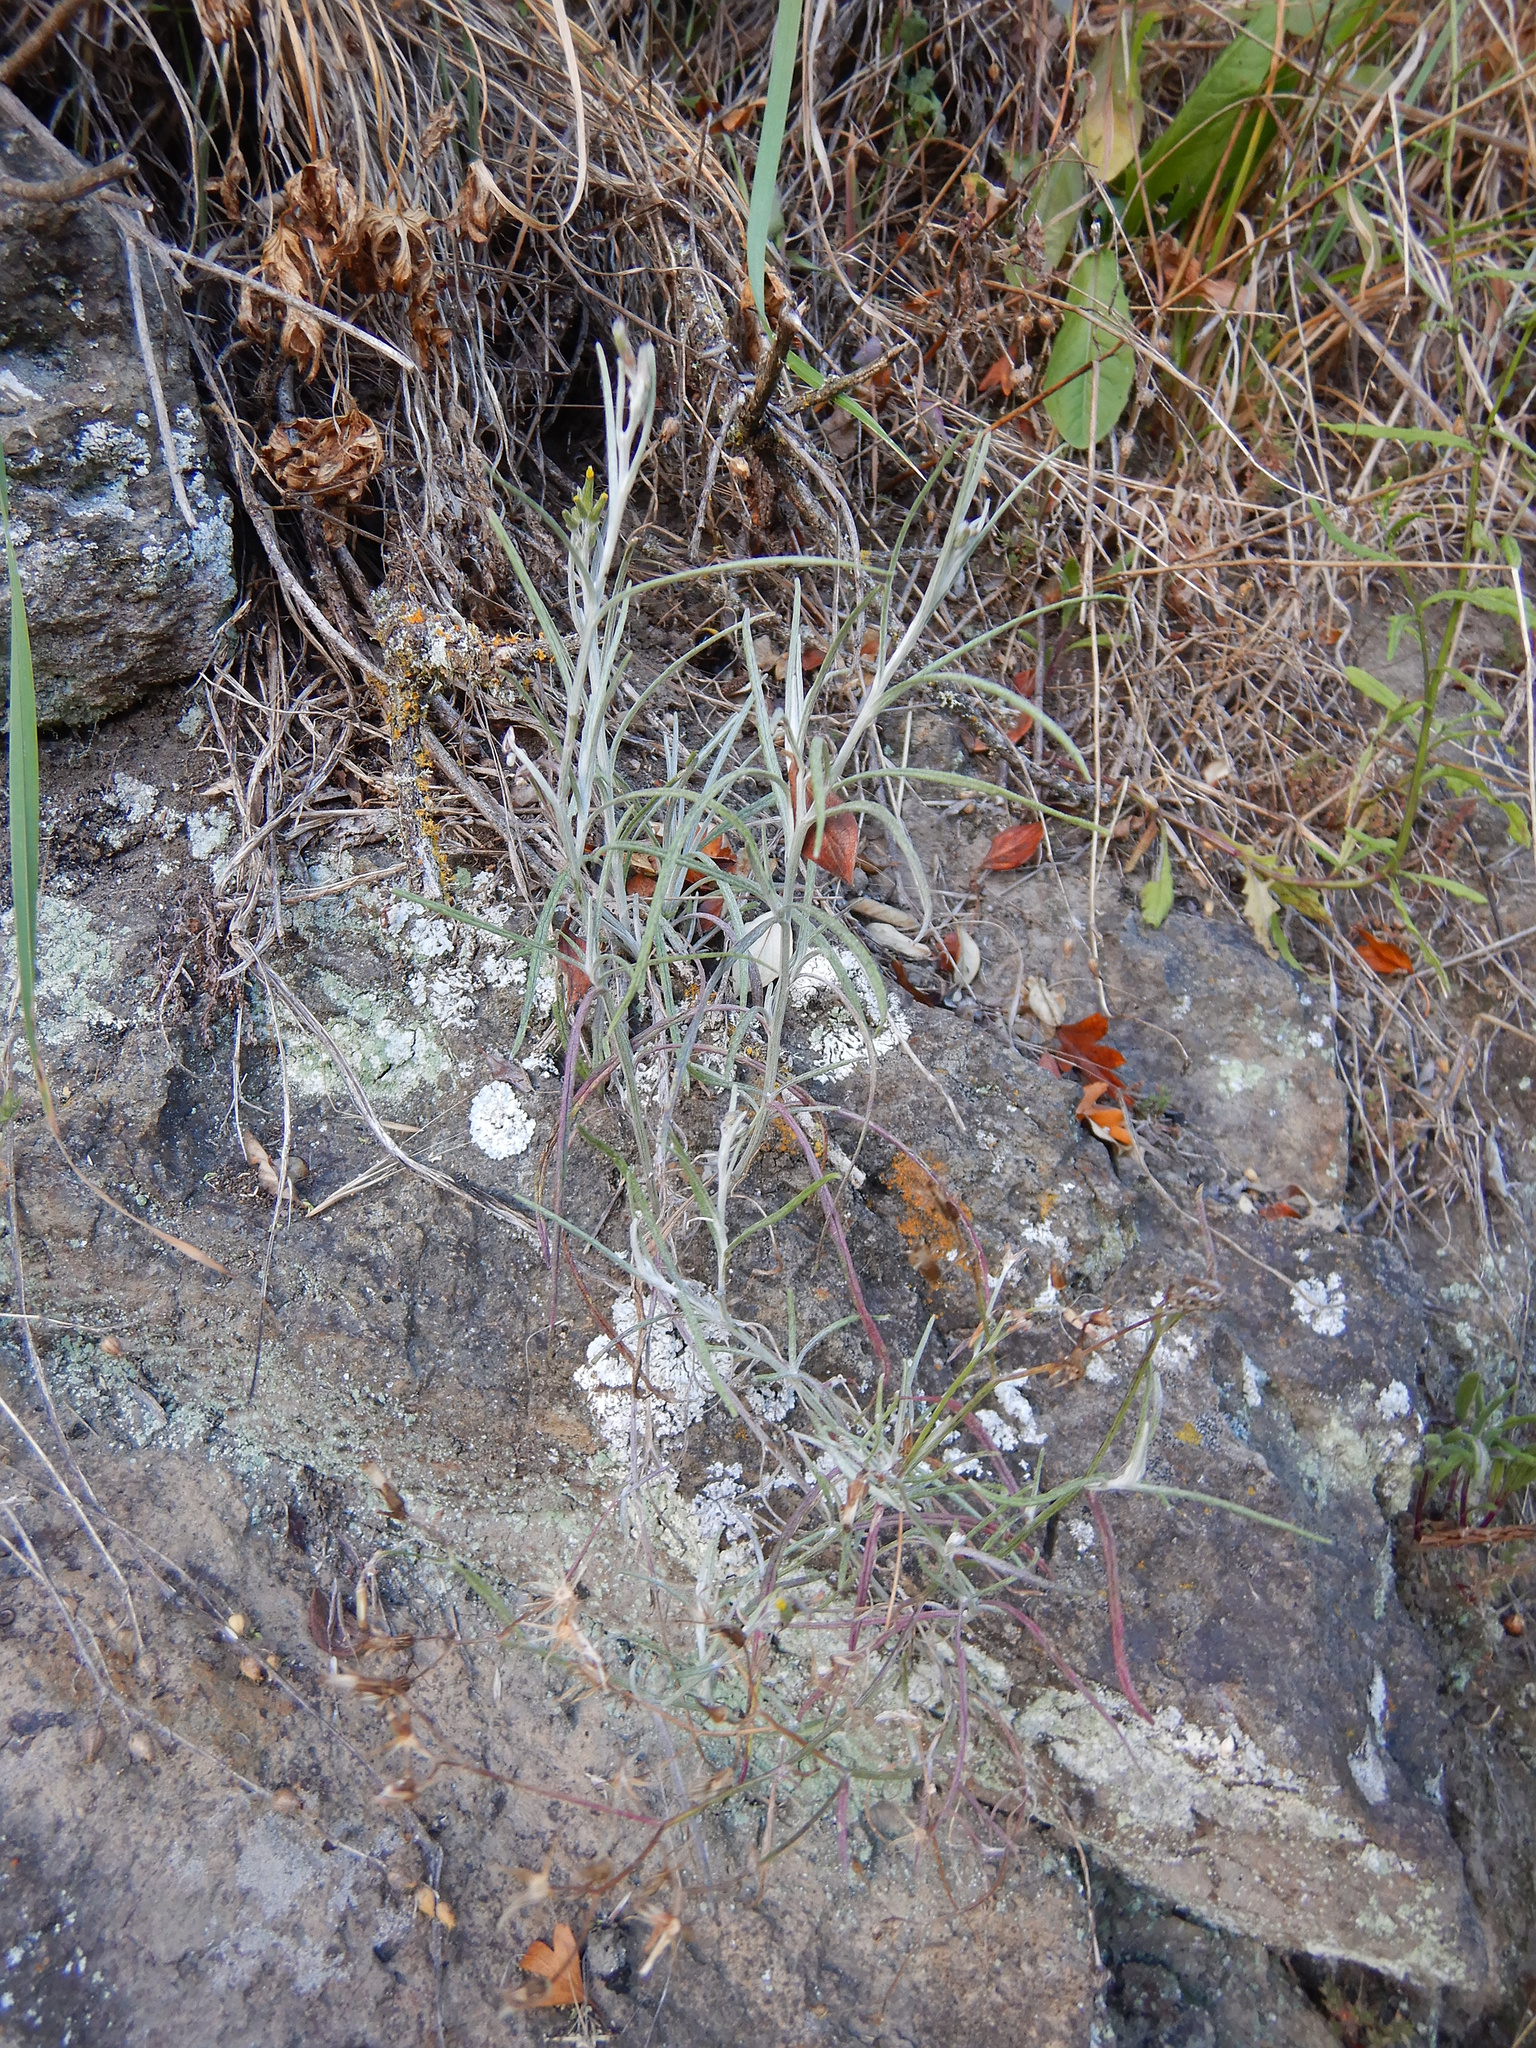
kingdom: Plantae
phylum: Tracheophyta
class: Magnoliopsida
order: Asterales
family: Asteraceae
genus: Senecio
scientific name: Senecio quadridentatus
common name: Cotton fireweed
